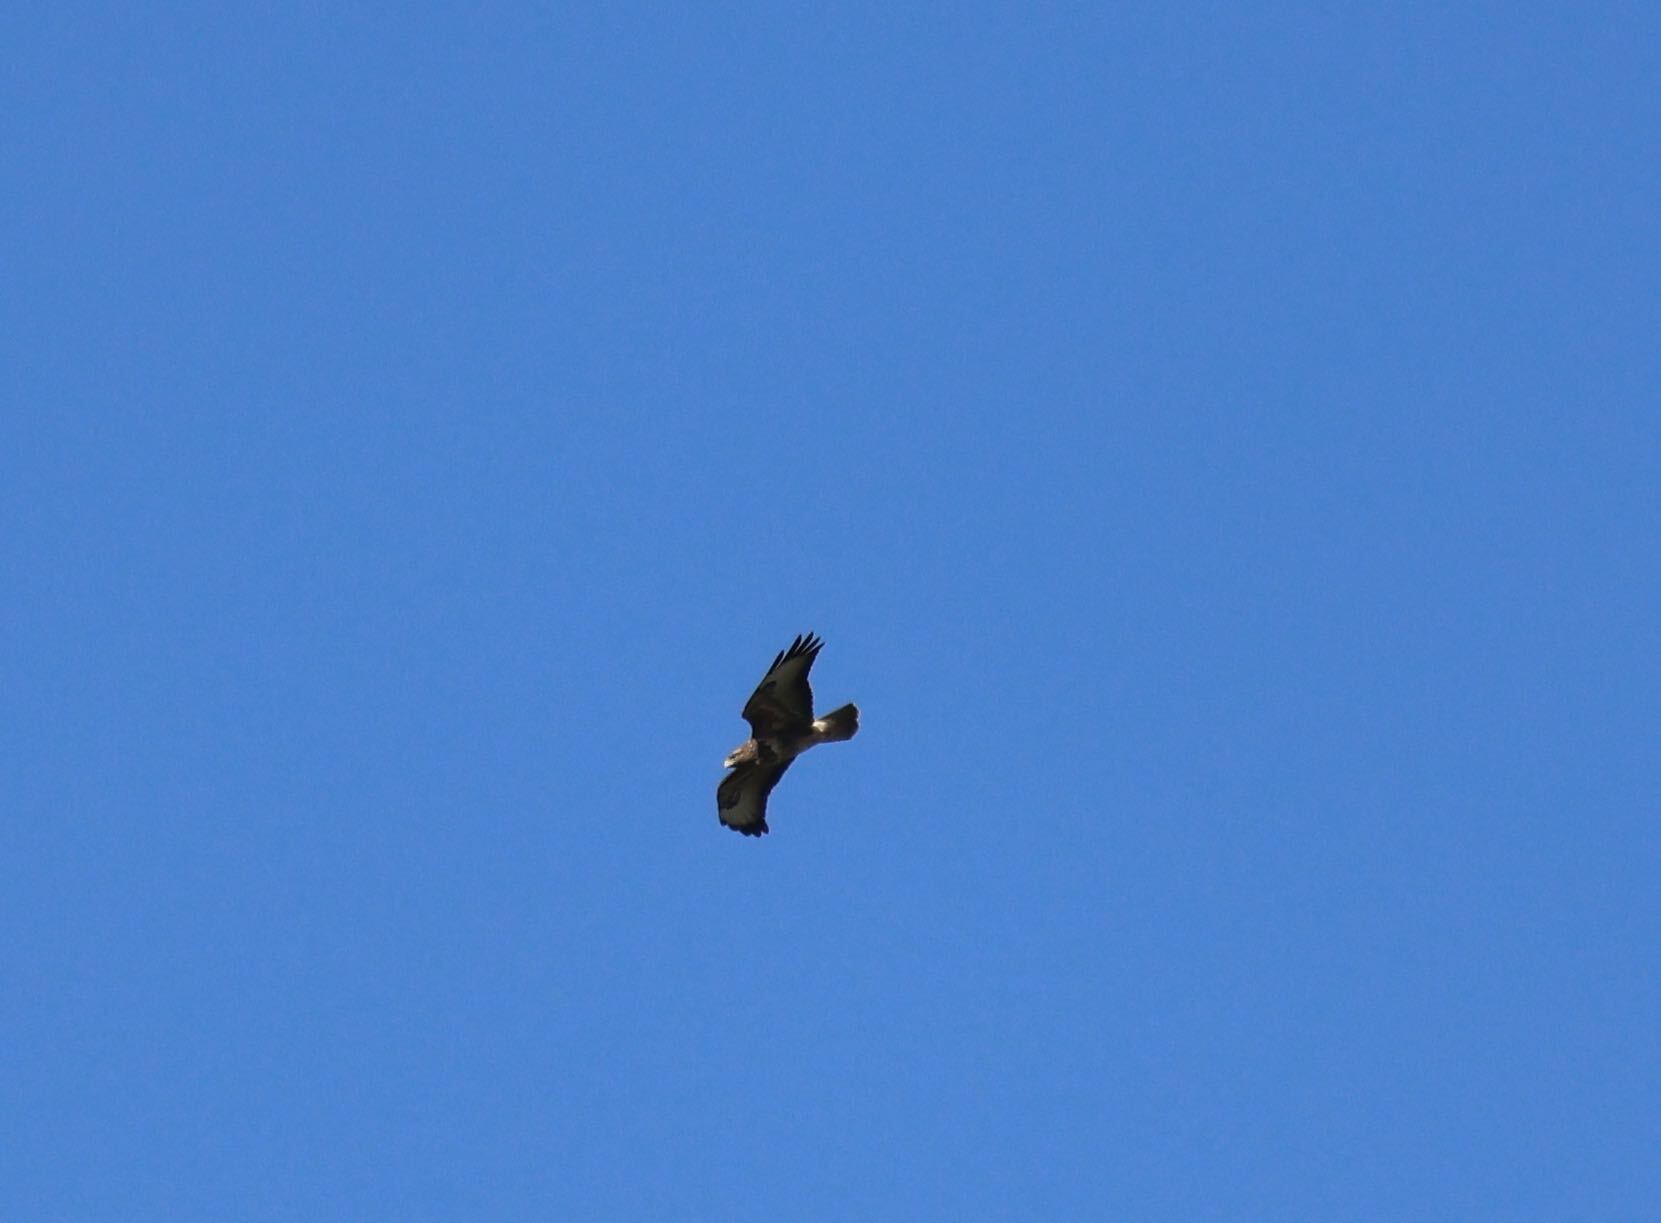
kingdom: Animalia
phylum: Chordata
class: Aves
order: Accipitriformes
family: Accipitridae
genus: Buteo
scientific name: Buteo buteo
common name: Common buzzard
